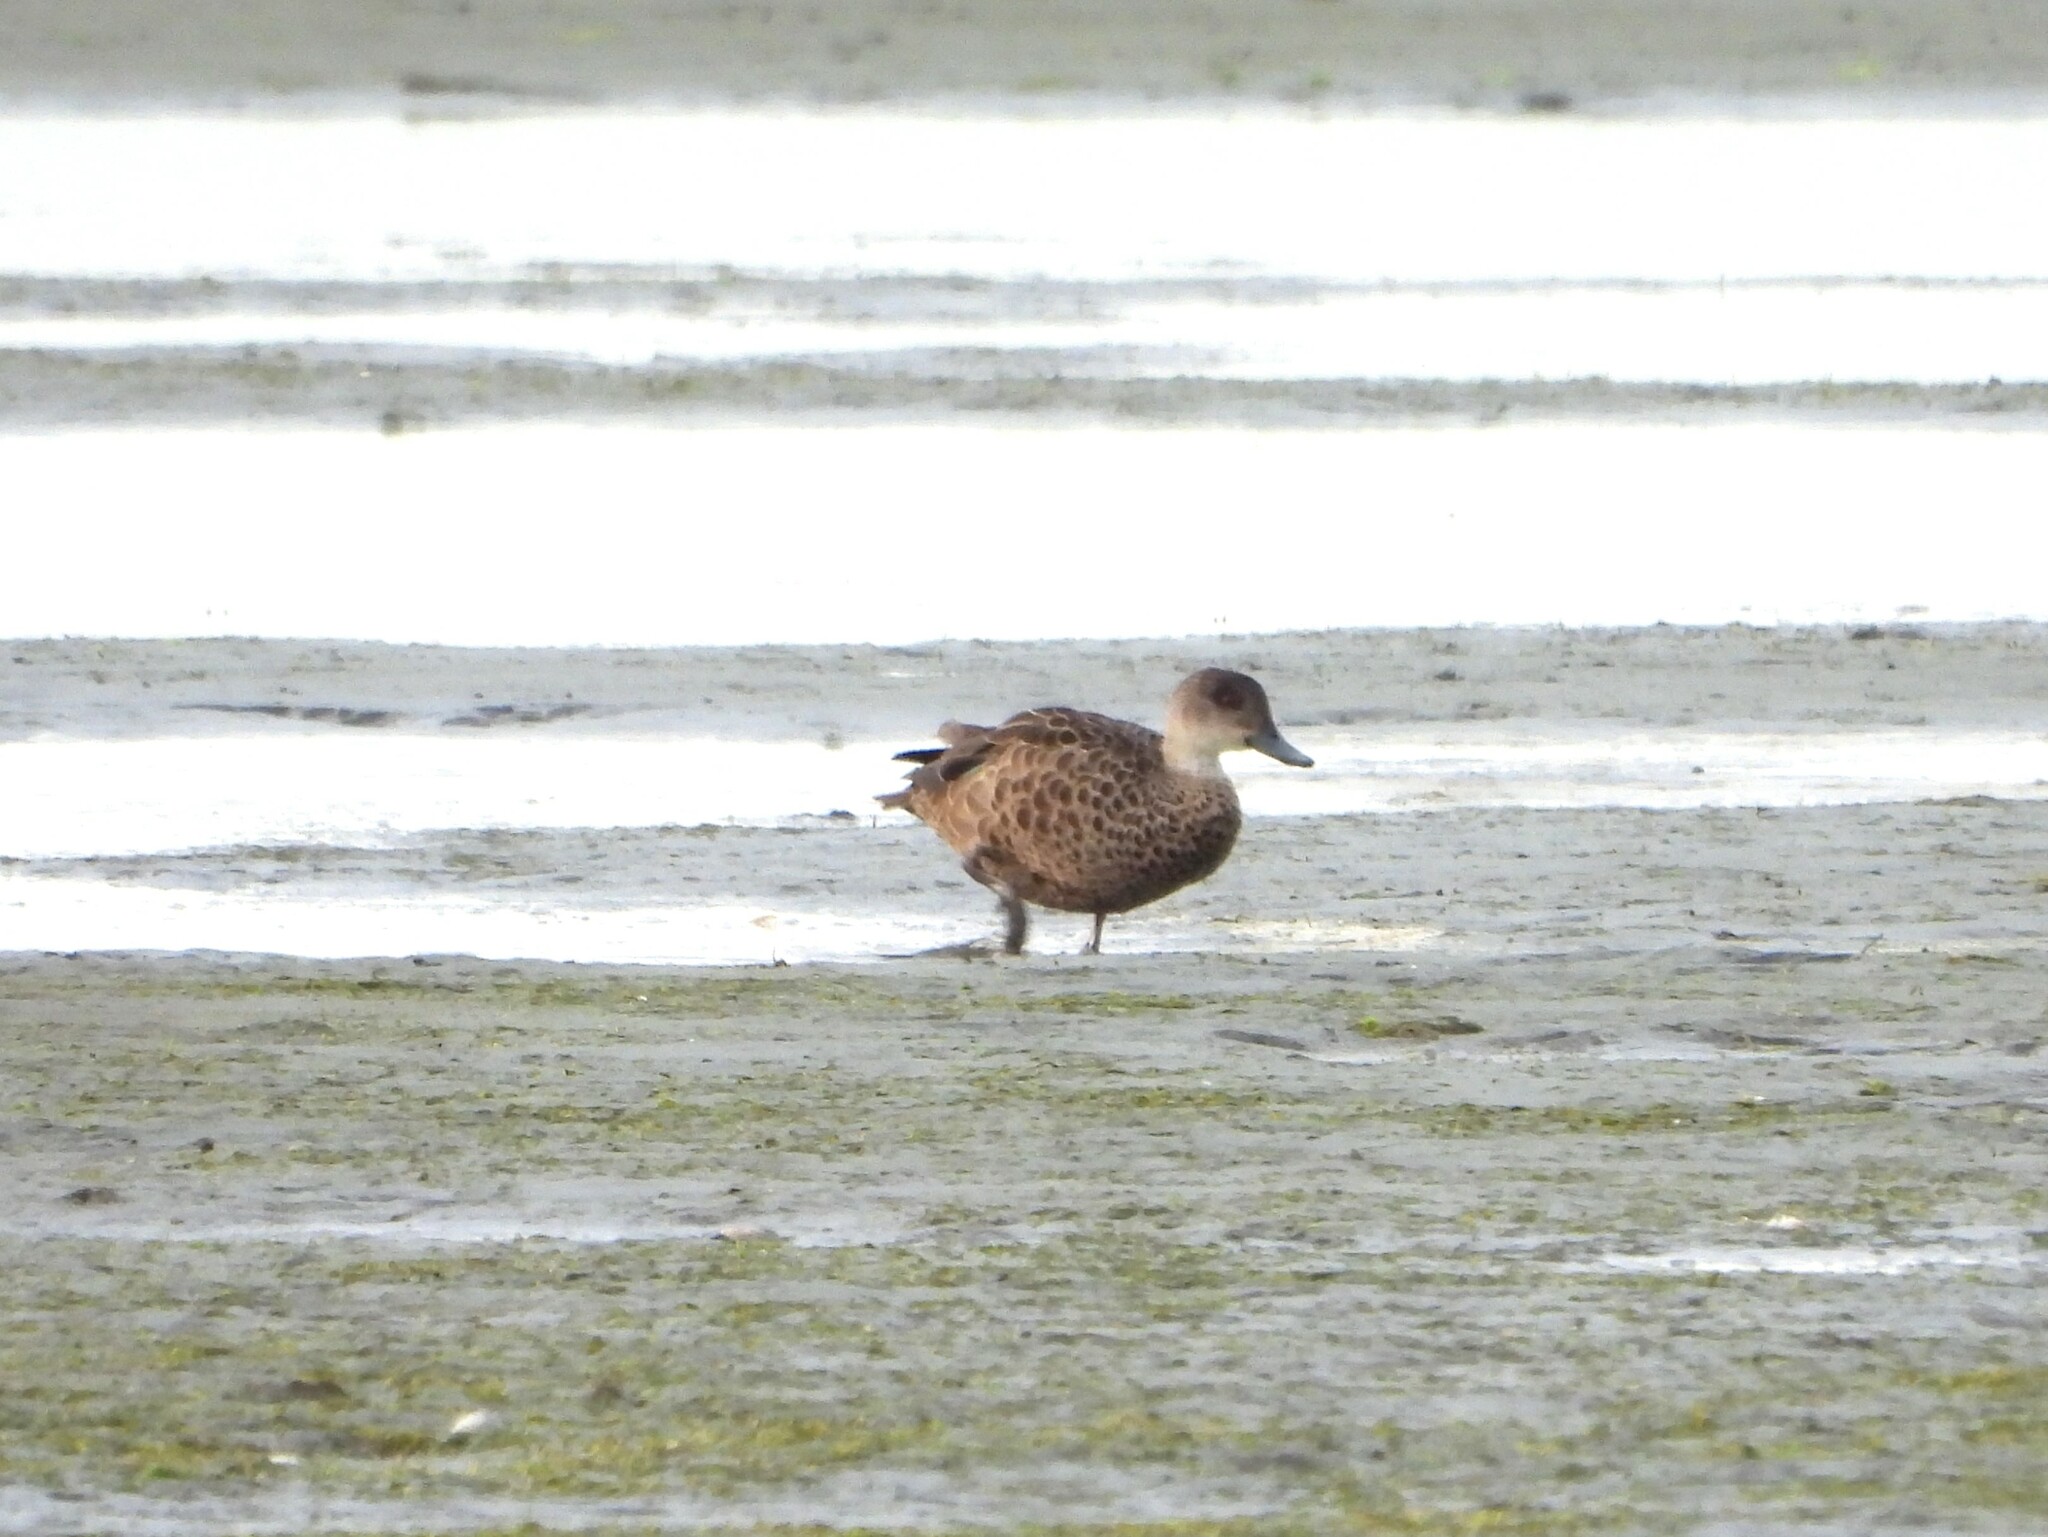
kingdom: Animalia
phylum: Chordata
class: Aves
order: Anseriformes
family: Anatidae
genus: Anas
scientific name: Anas gracilis
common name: Grey teal
